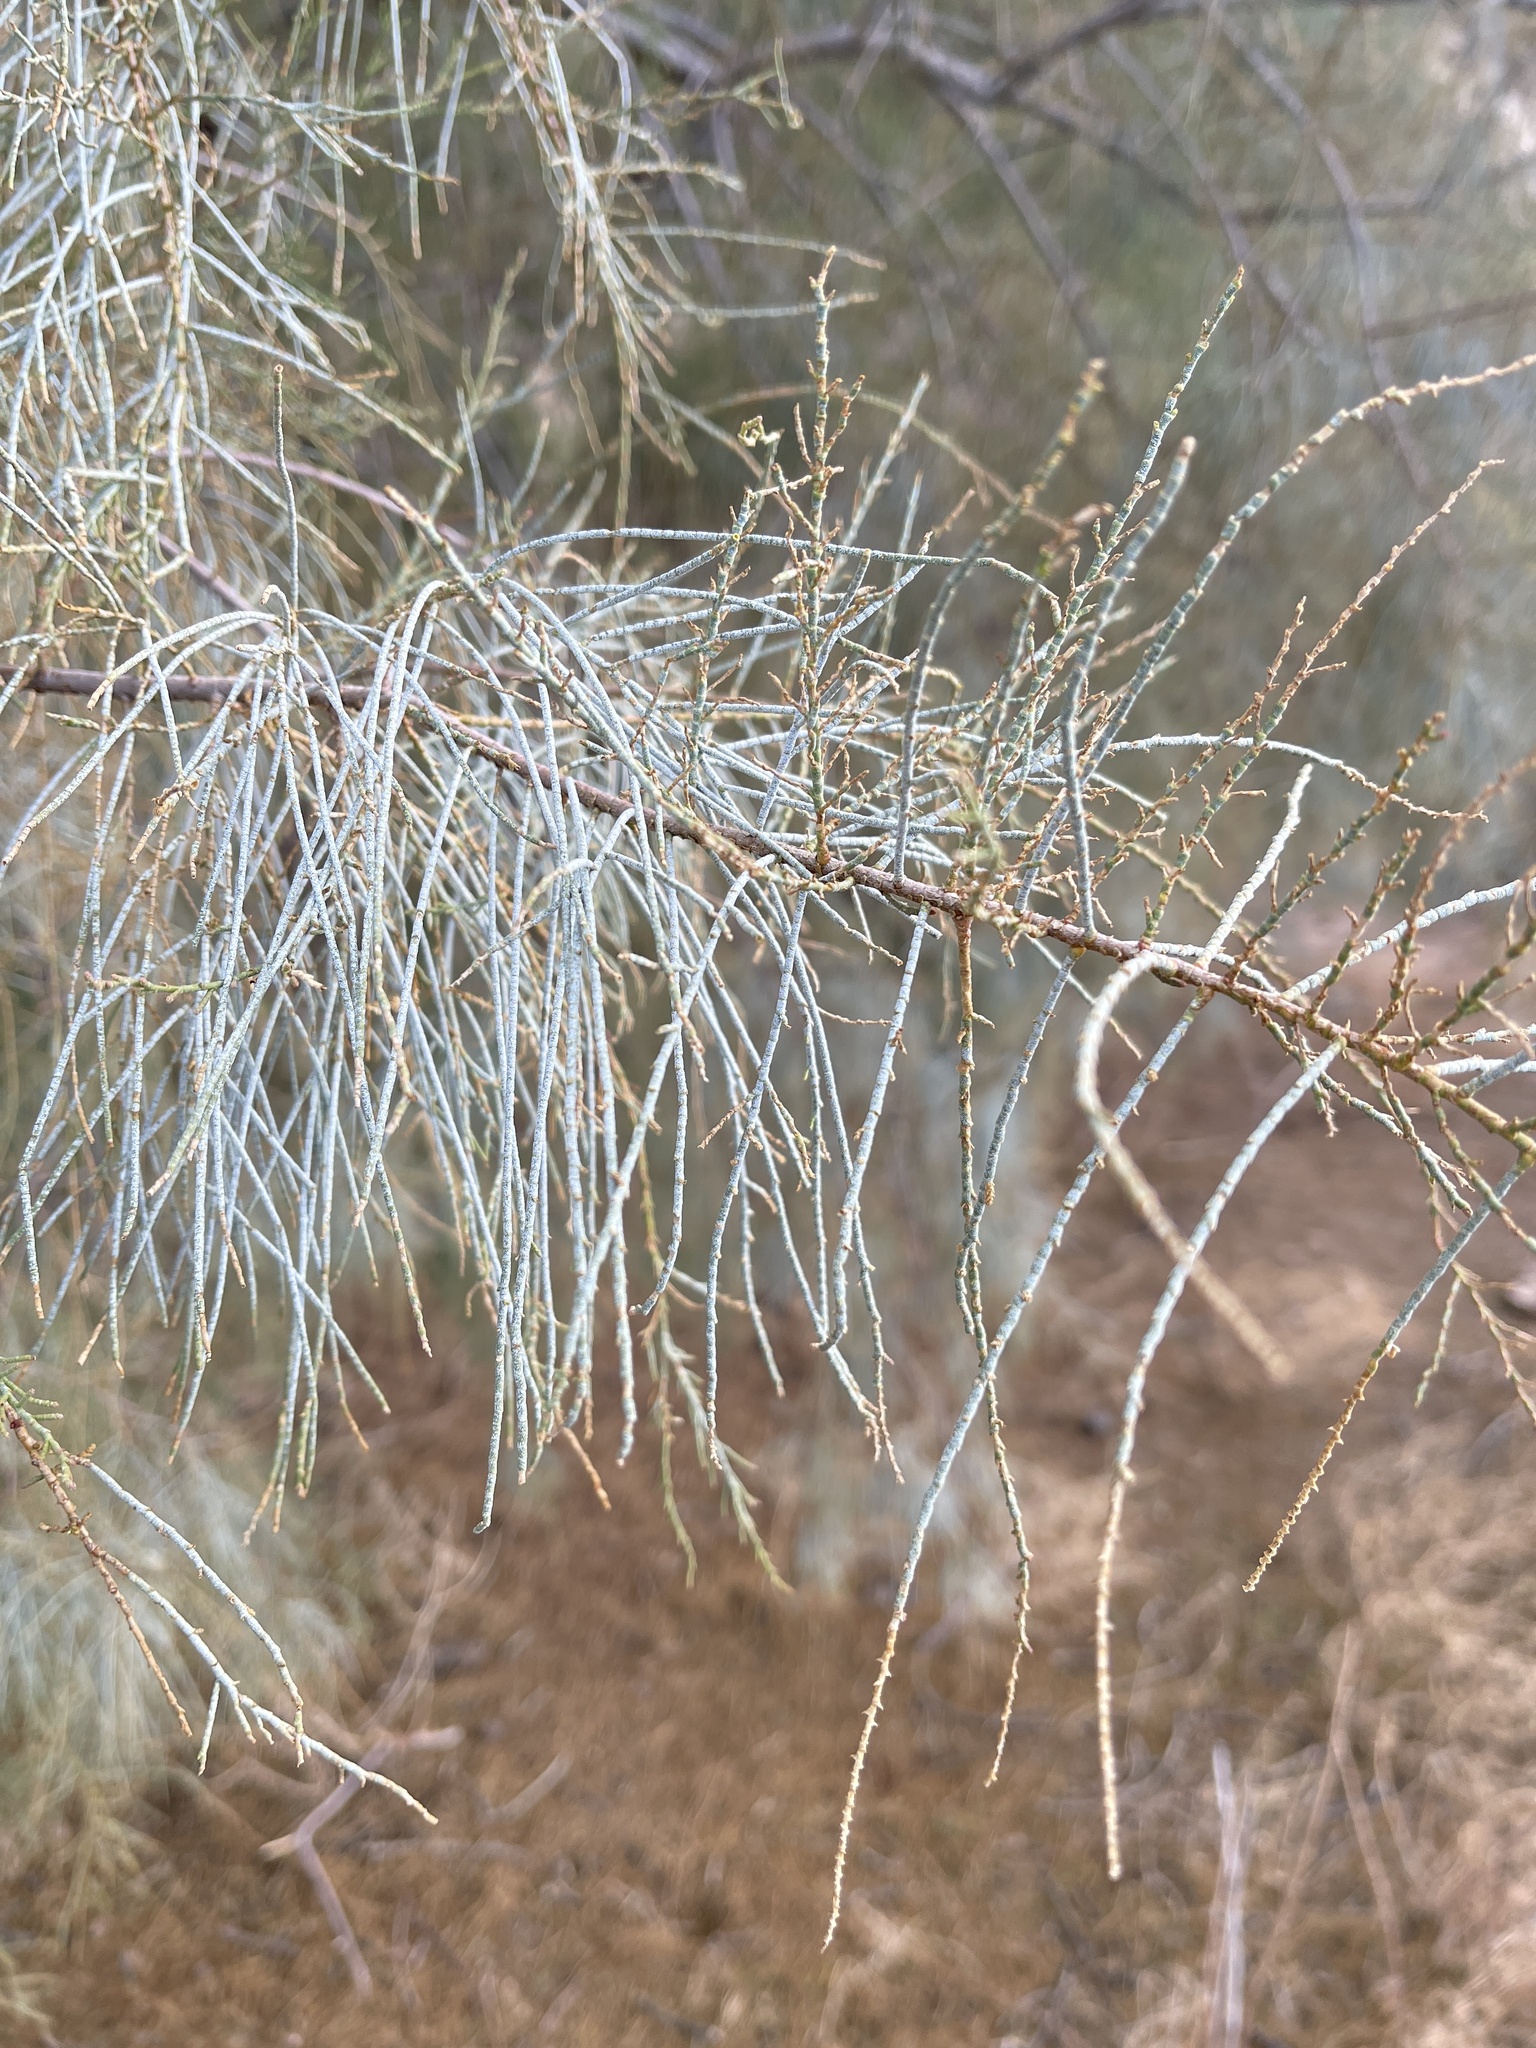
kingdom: Plantae
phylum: Tracheophyta
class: Magnoliopsida
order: Caryophyllales
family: Tamaricaceae
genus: Tamarix
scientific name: Tamarix aphylla
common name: Athel tamarisk
